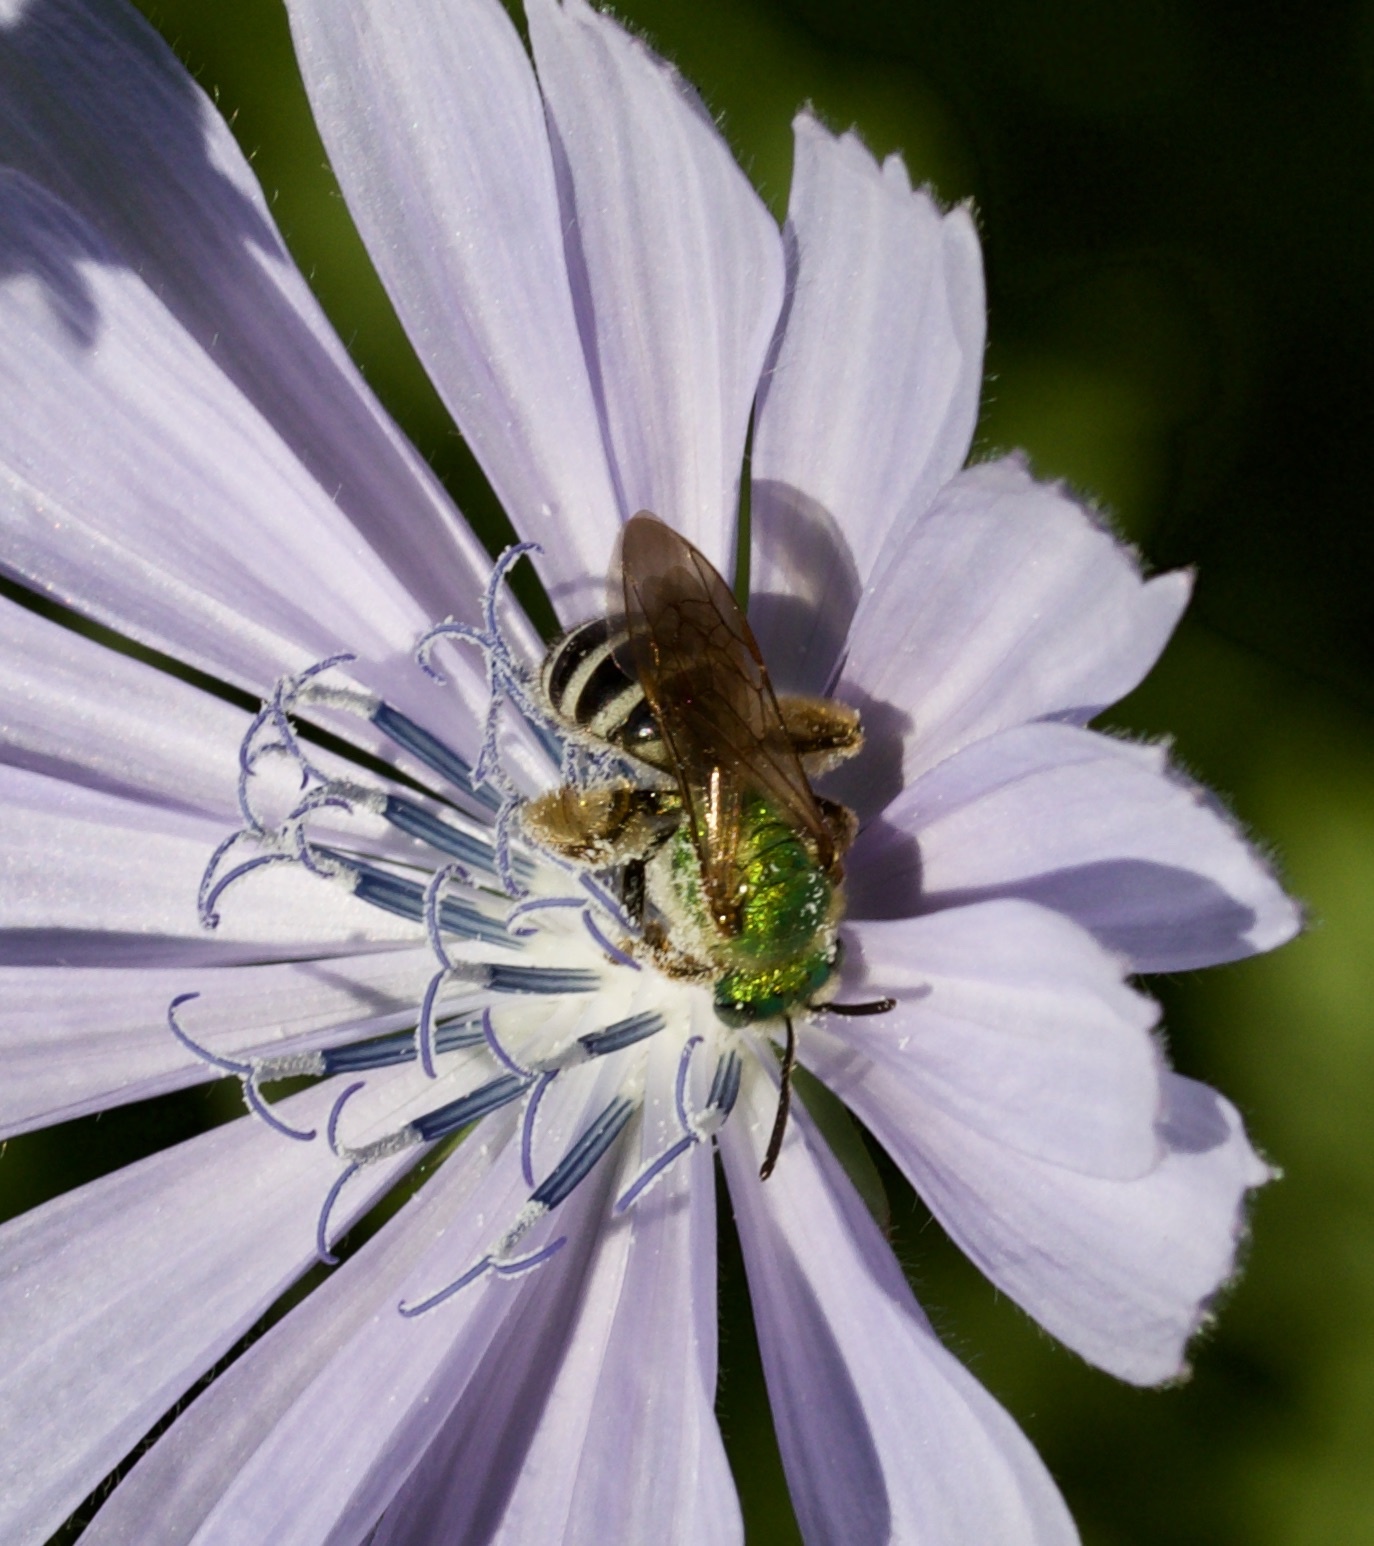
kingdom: Animalia
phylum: Arthropoda
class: Insecta
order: Hymenoptera
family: Halictidae
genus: Agapostemon
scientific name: Agapostemon virescens
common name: Bicolored striped sweat bee
